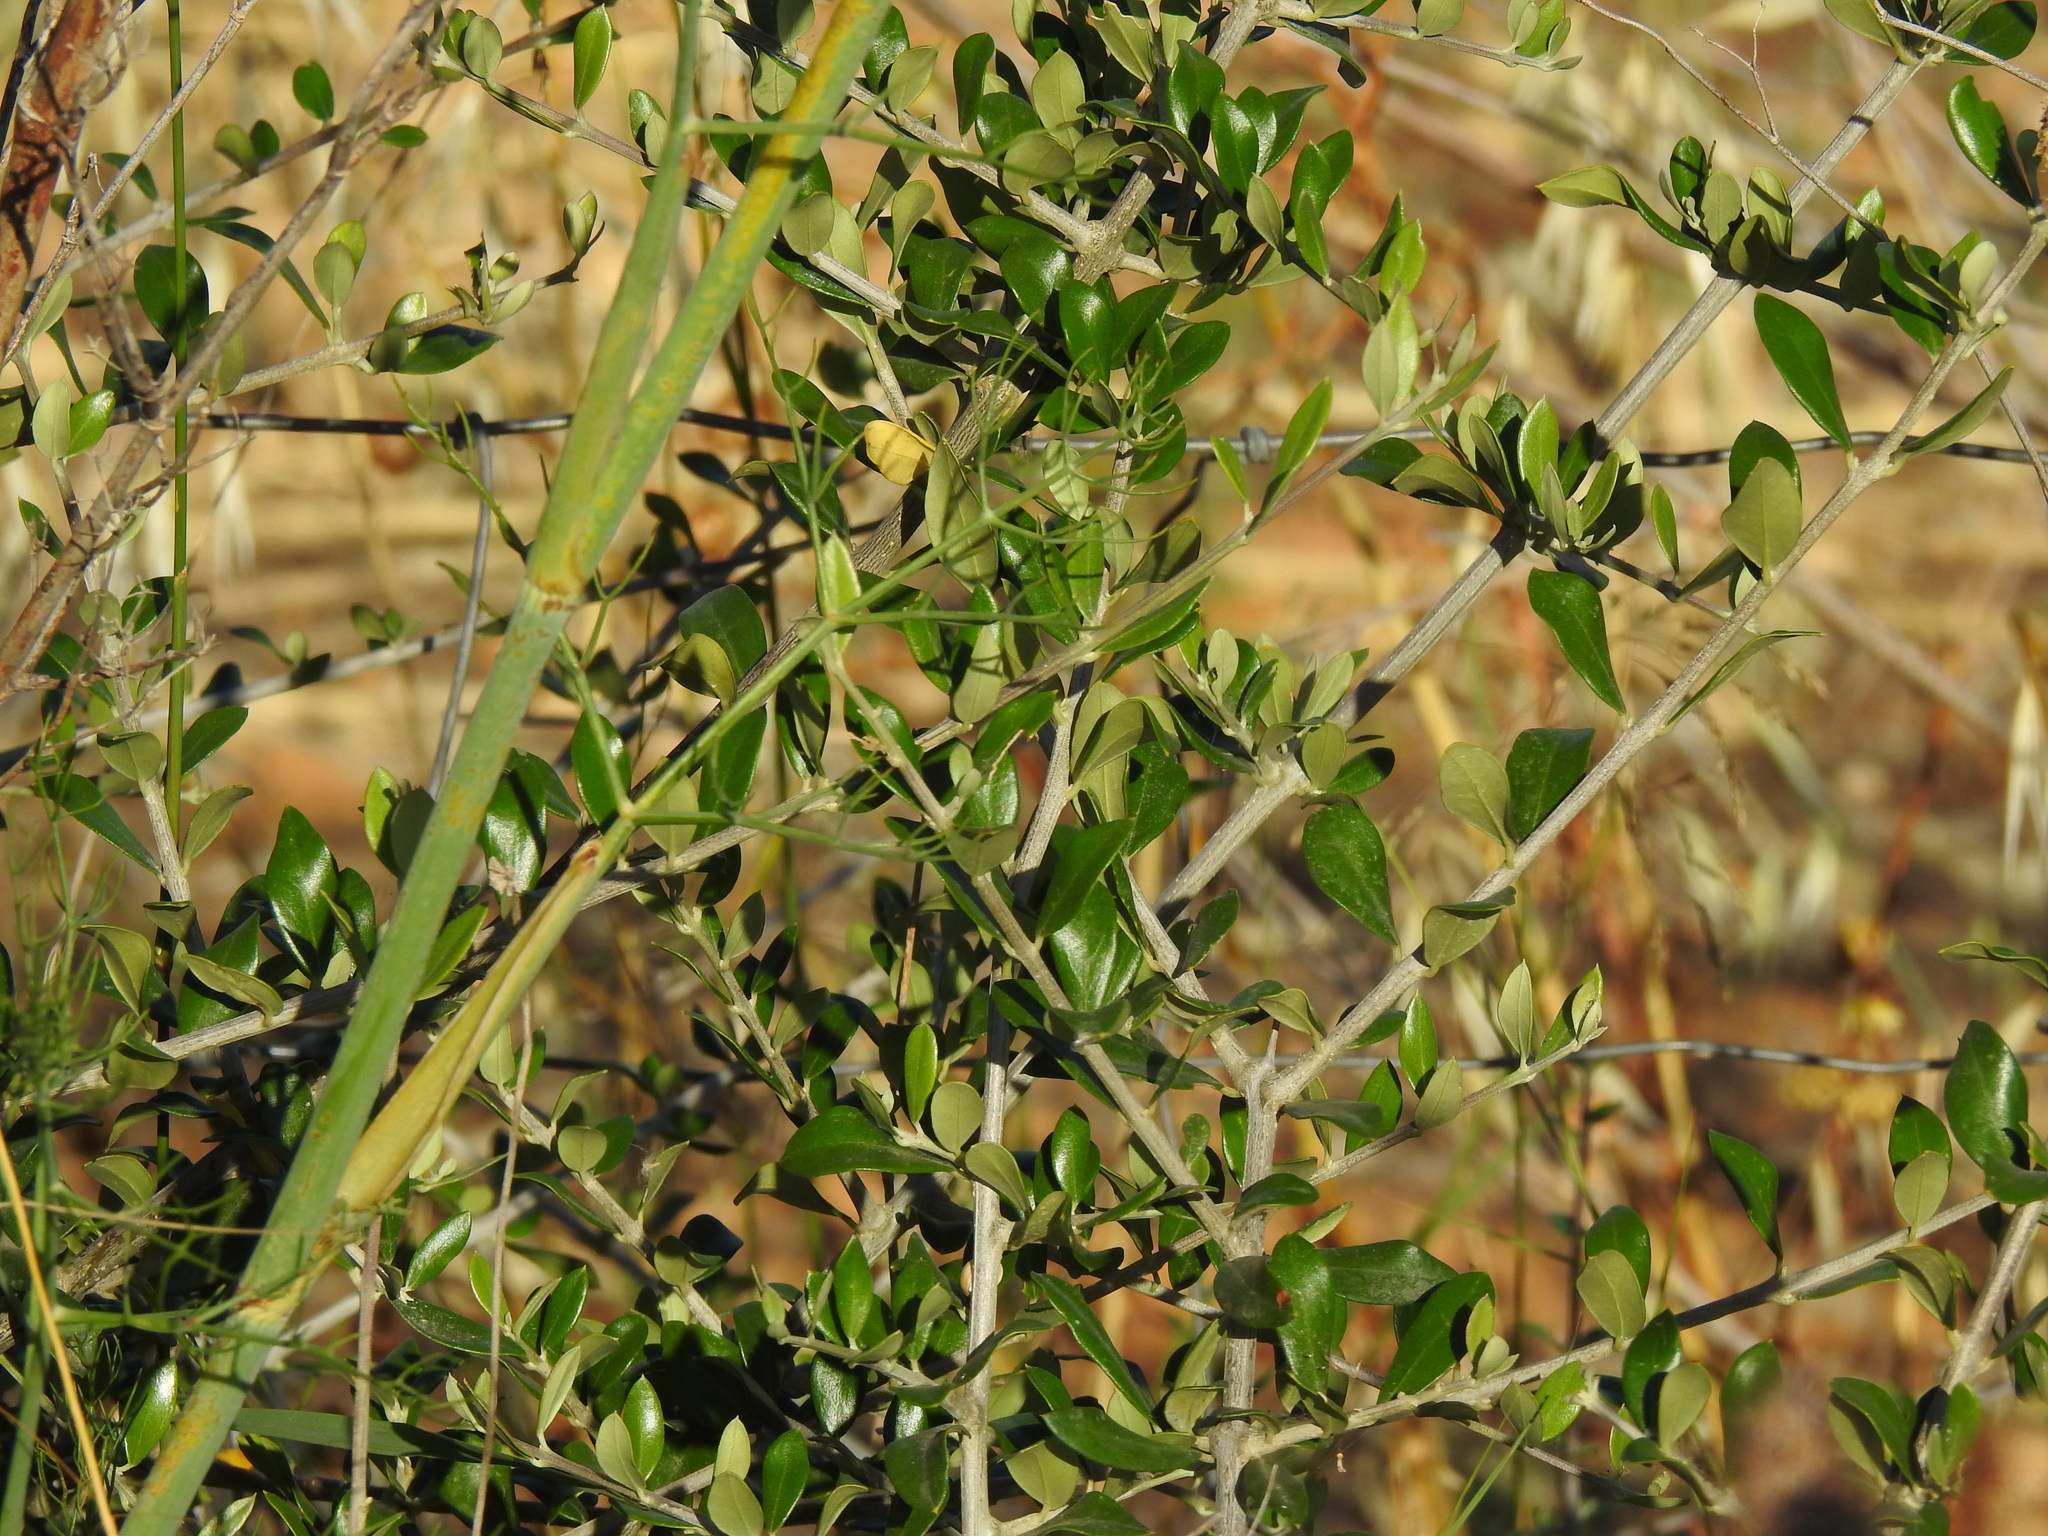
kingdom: Plantae
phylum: Tracheophyta
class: Magnoliopsida
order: Lamiales
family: Oleaceae
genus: Olea
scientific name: Olea europaea
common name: Olive
